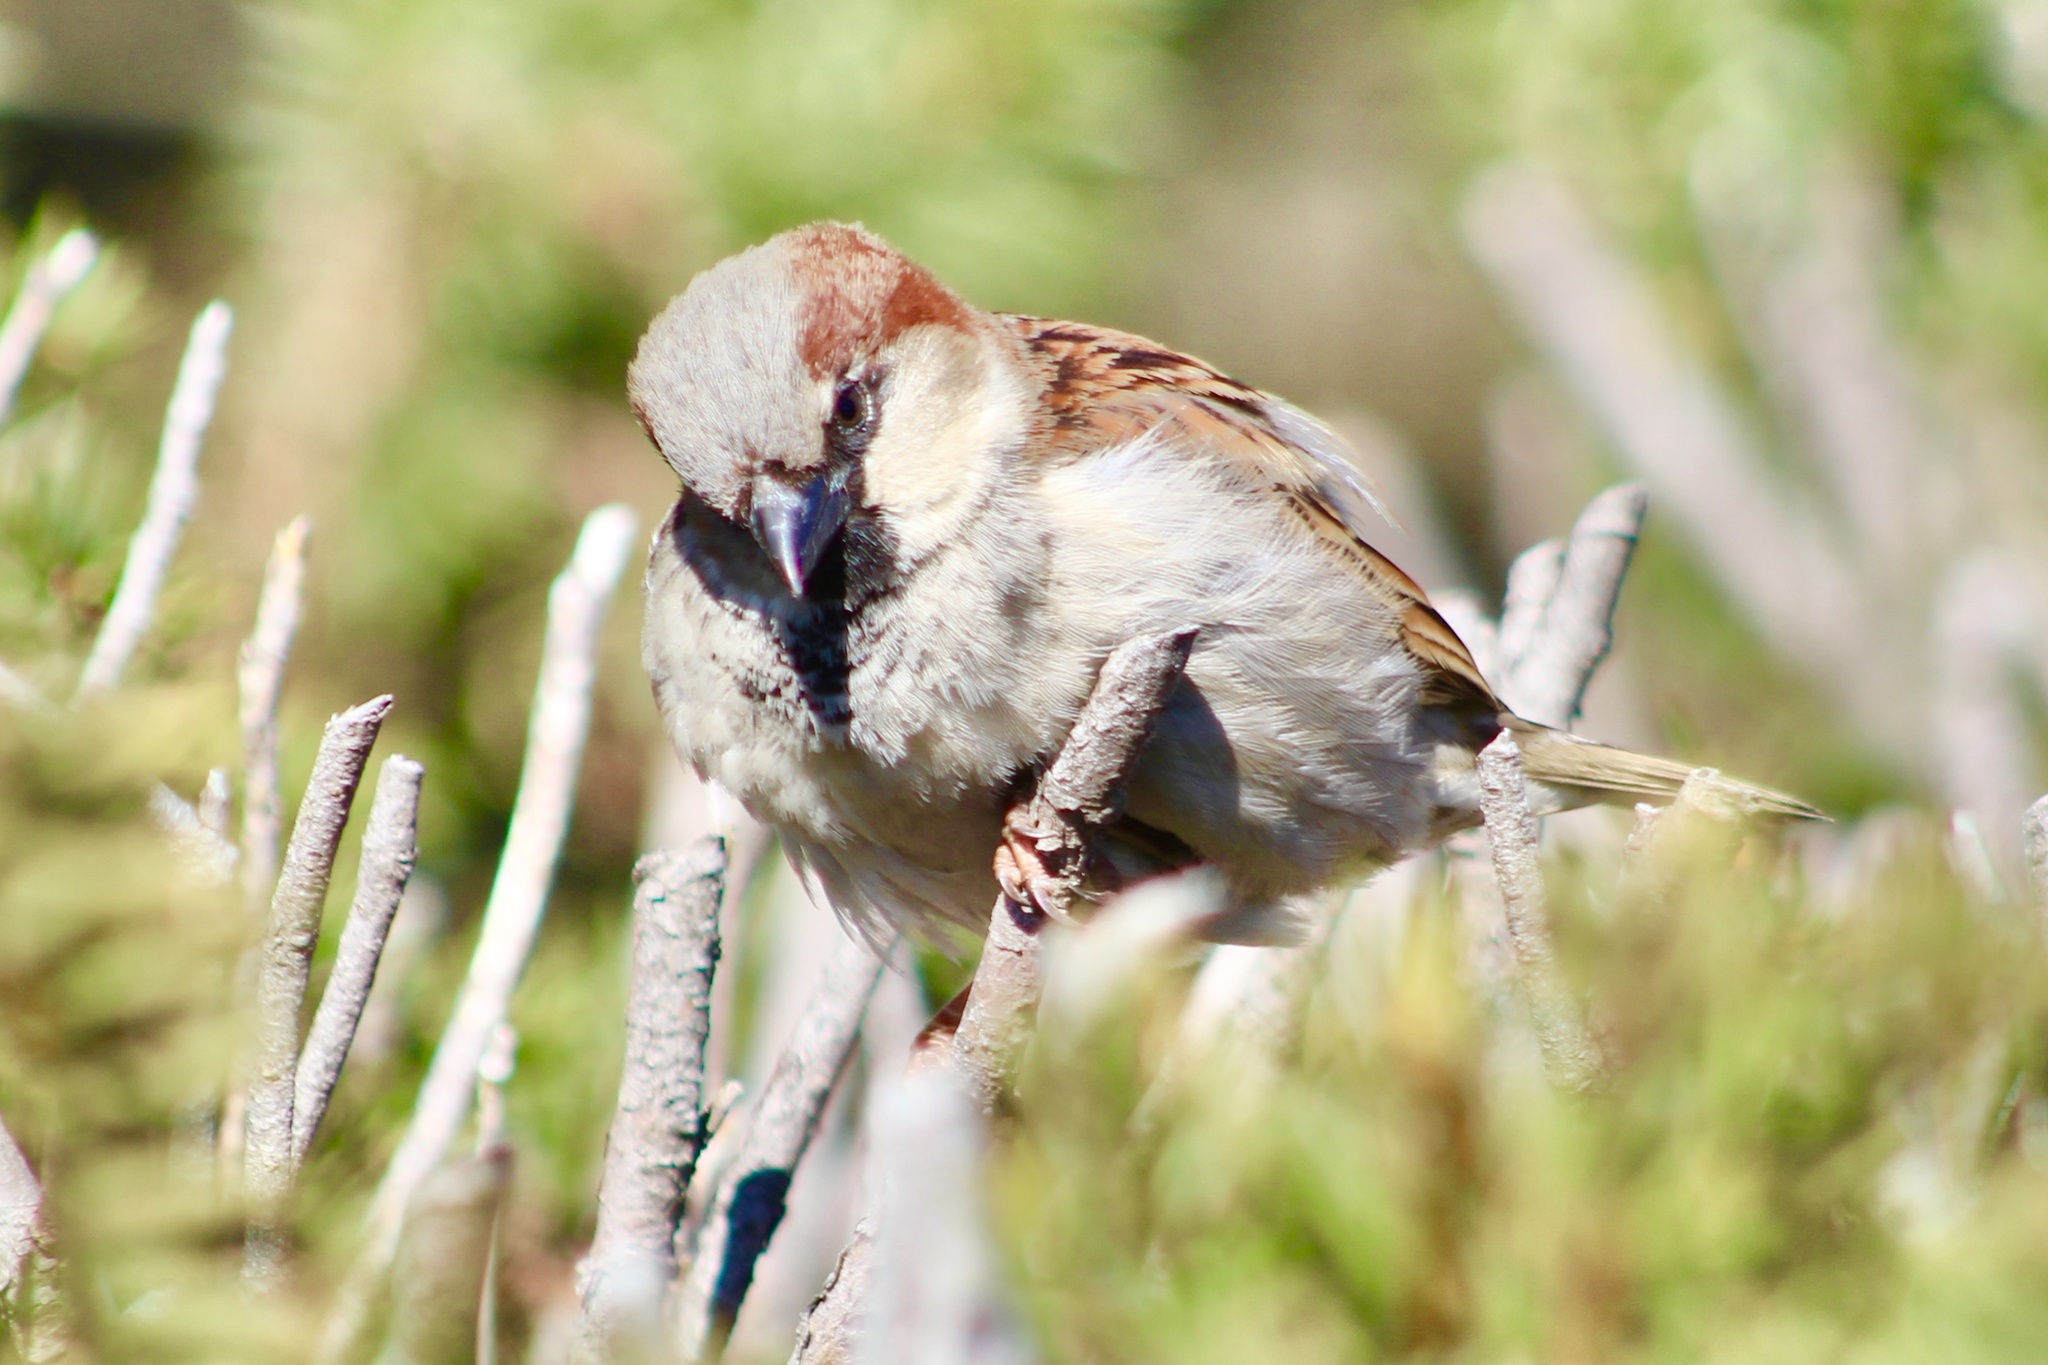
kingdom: Animalia
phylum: Chordata
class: Aves
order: Passeriformes
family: Passeridae
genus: Passer
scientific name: Passer domesticus
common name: House sparrow
